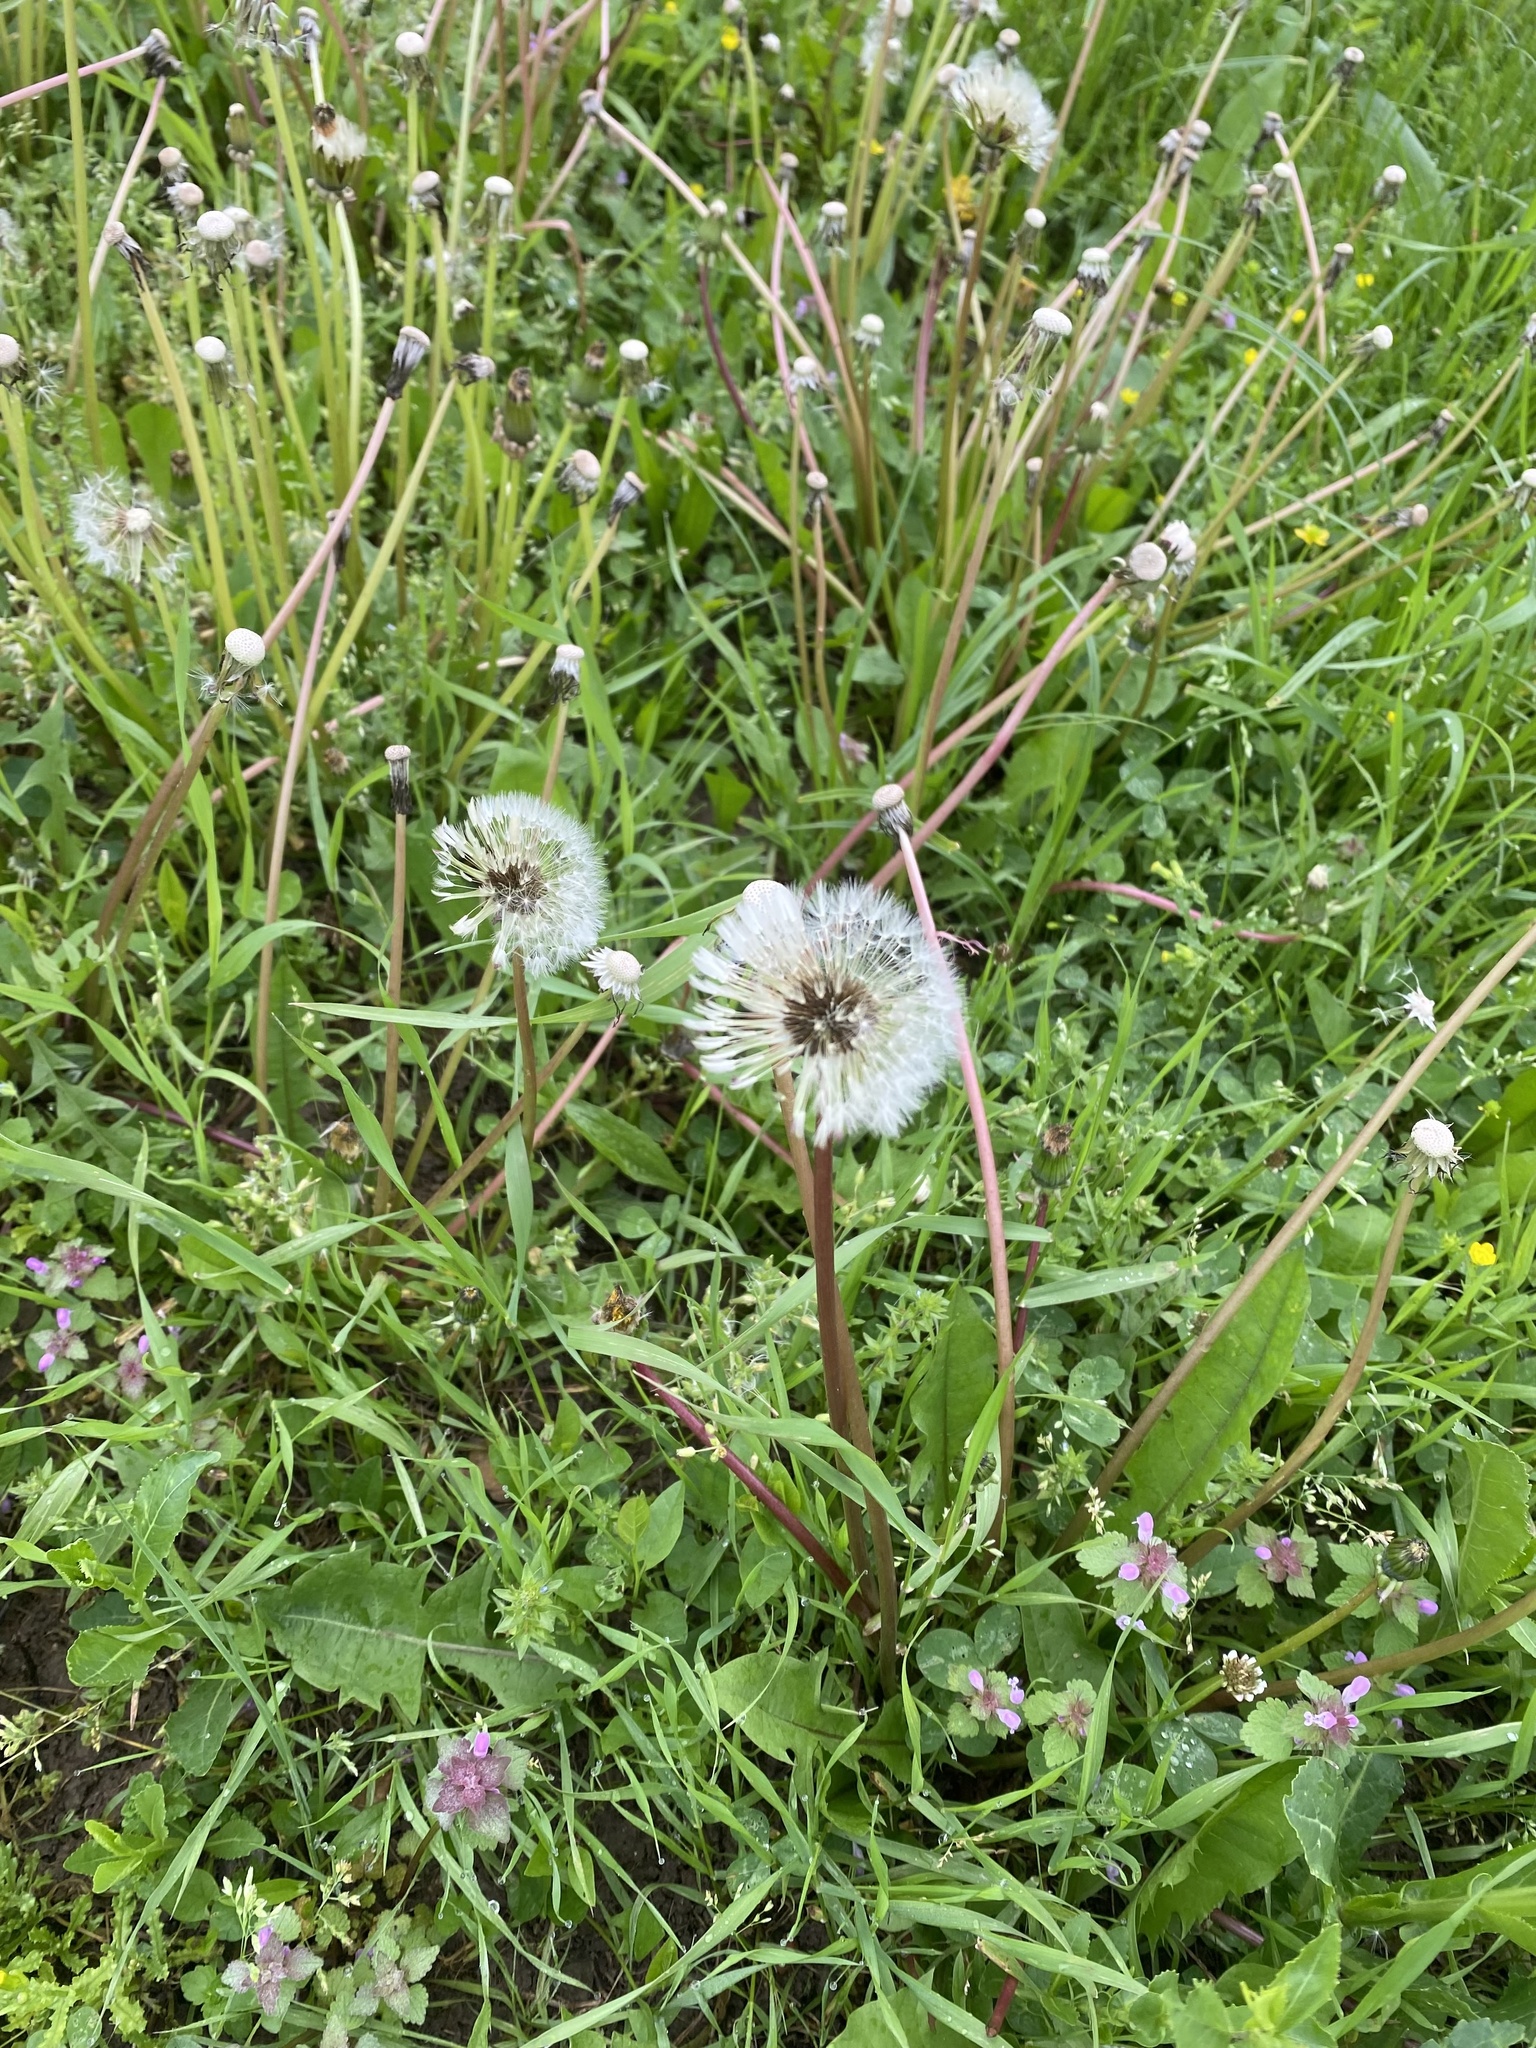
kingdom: Plantae
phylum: Tracheophyta
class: Magnoliopsida
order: Asterales
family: Asteraceae
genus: Taraxacum
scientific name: Taraxacum officinale
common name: Common dandelion
